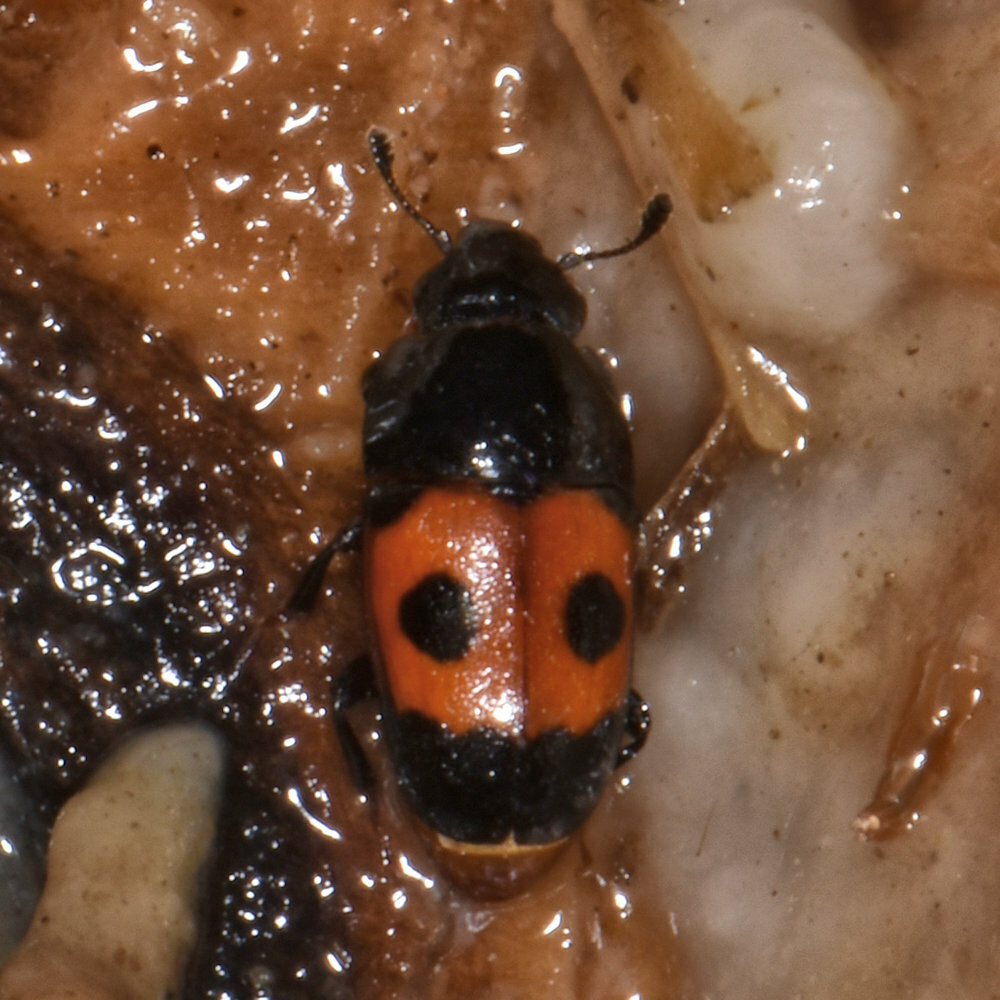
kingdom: Animalia
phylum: Arthropoda
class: Insecta
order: Coleoptera
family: Nitidulidae
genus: Glischrochilus
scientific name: Glischrochilus sanguinolentus
